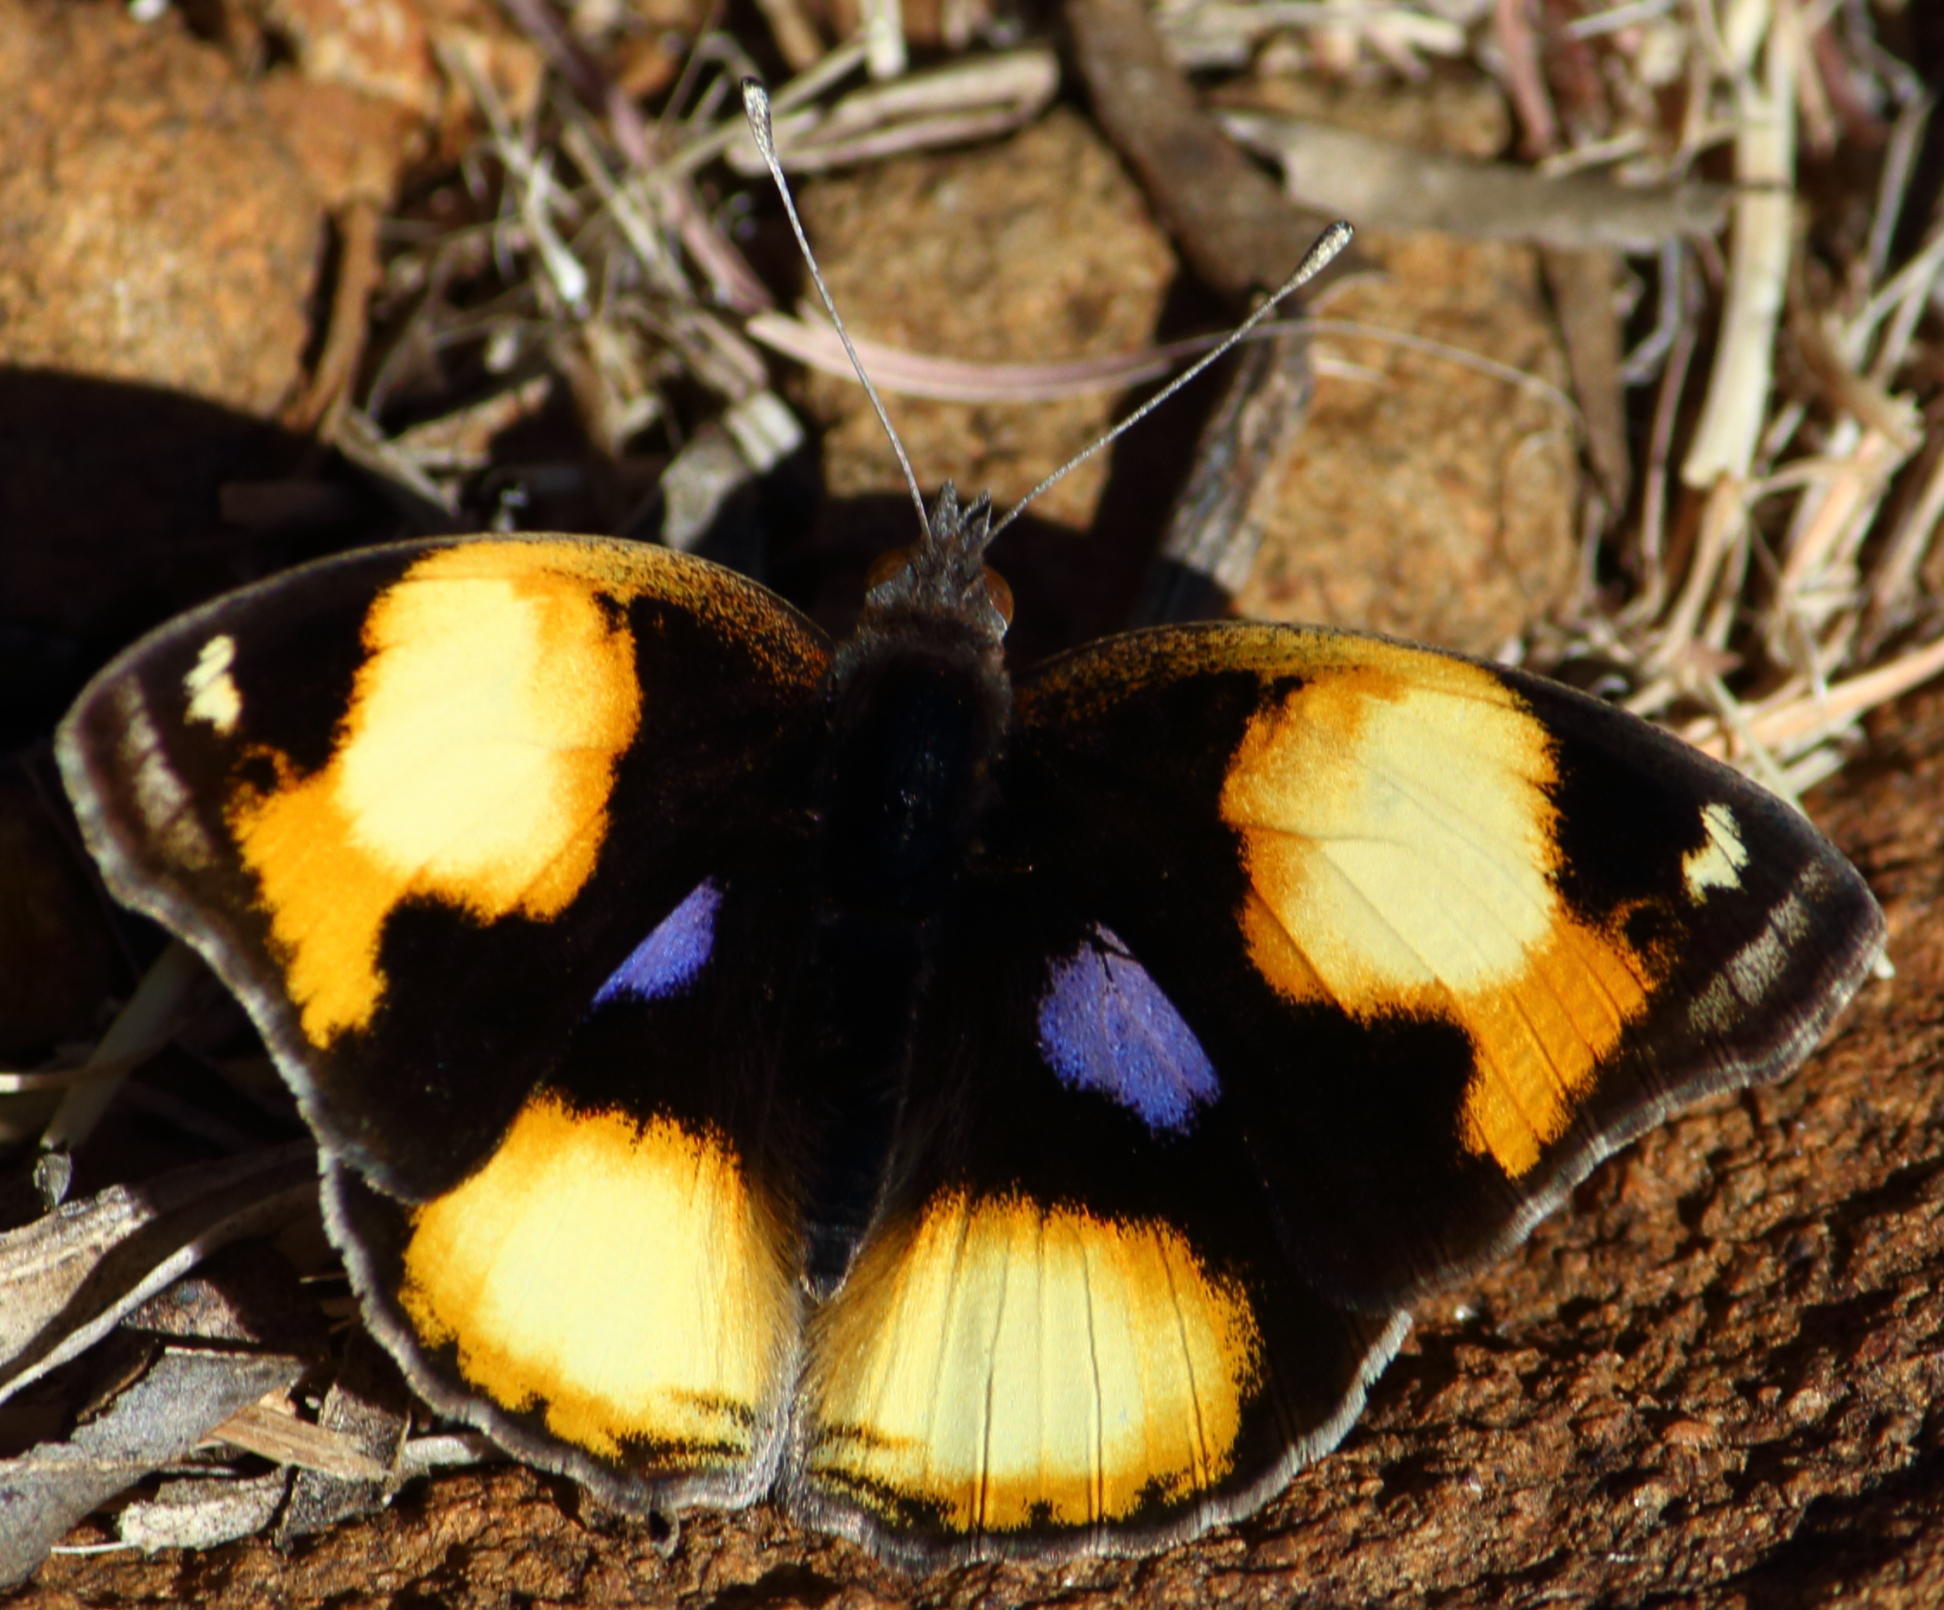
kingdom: Animalia
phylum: Arthropoda
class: Insecta
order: Lepidoptera
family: Nymphalidae
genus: Junonia
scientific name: Junonia hierta
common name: Yellow pansy
